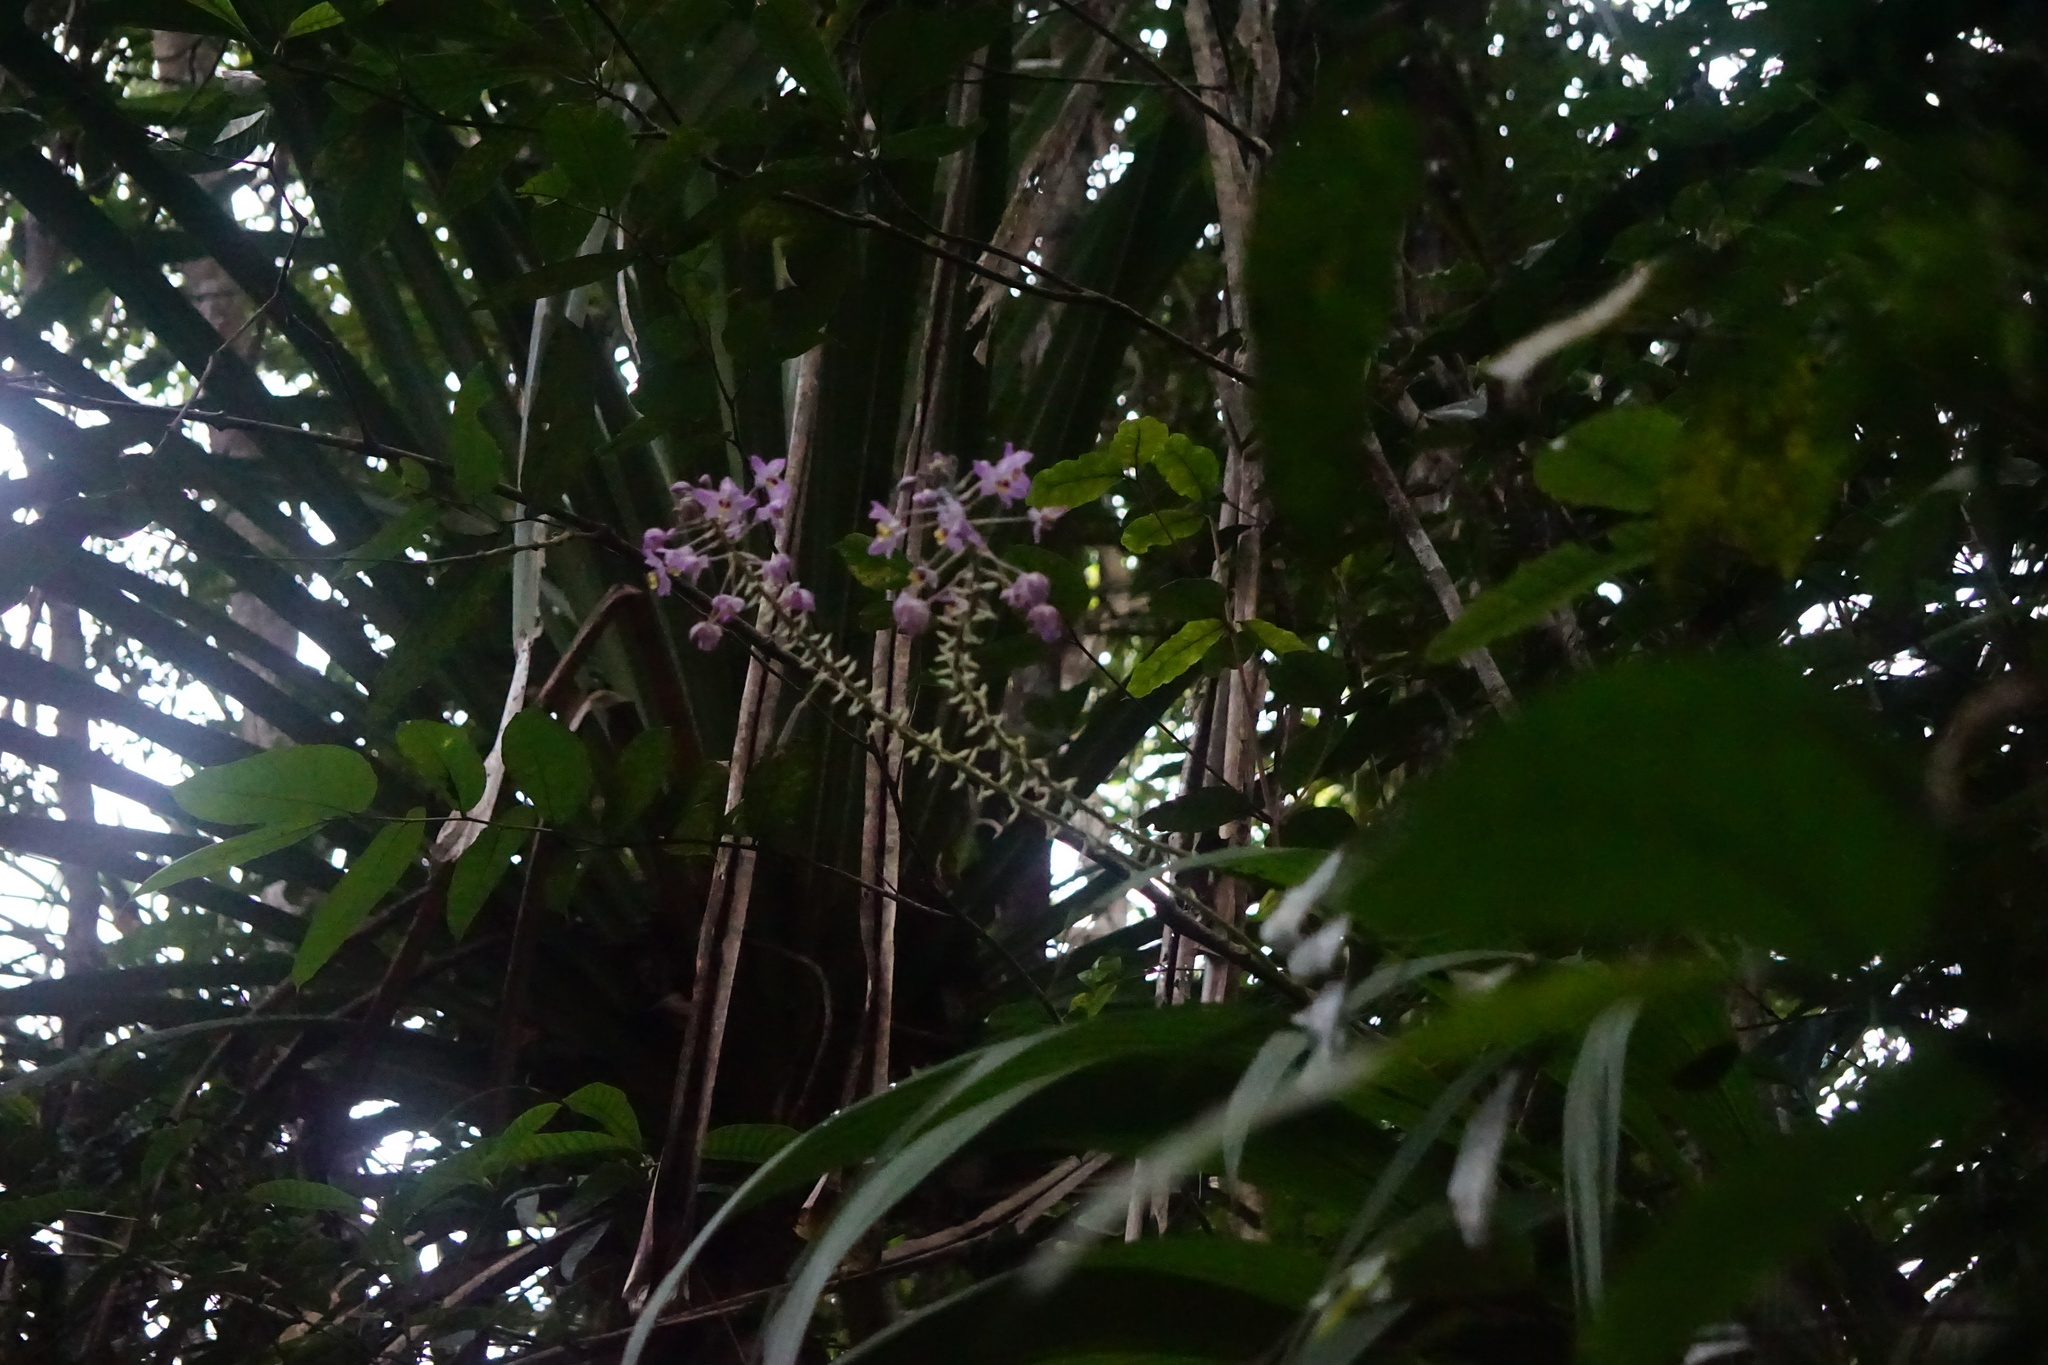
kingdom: Plantae
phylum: Tracheophyta
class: Liliopsida
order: Asparagales
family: Orchidaceae
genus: Spathoglottis
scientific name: Spathoglottis pacifica
